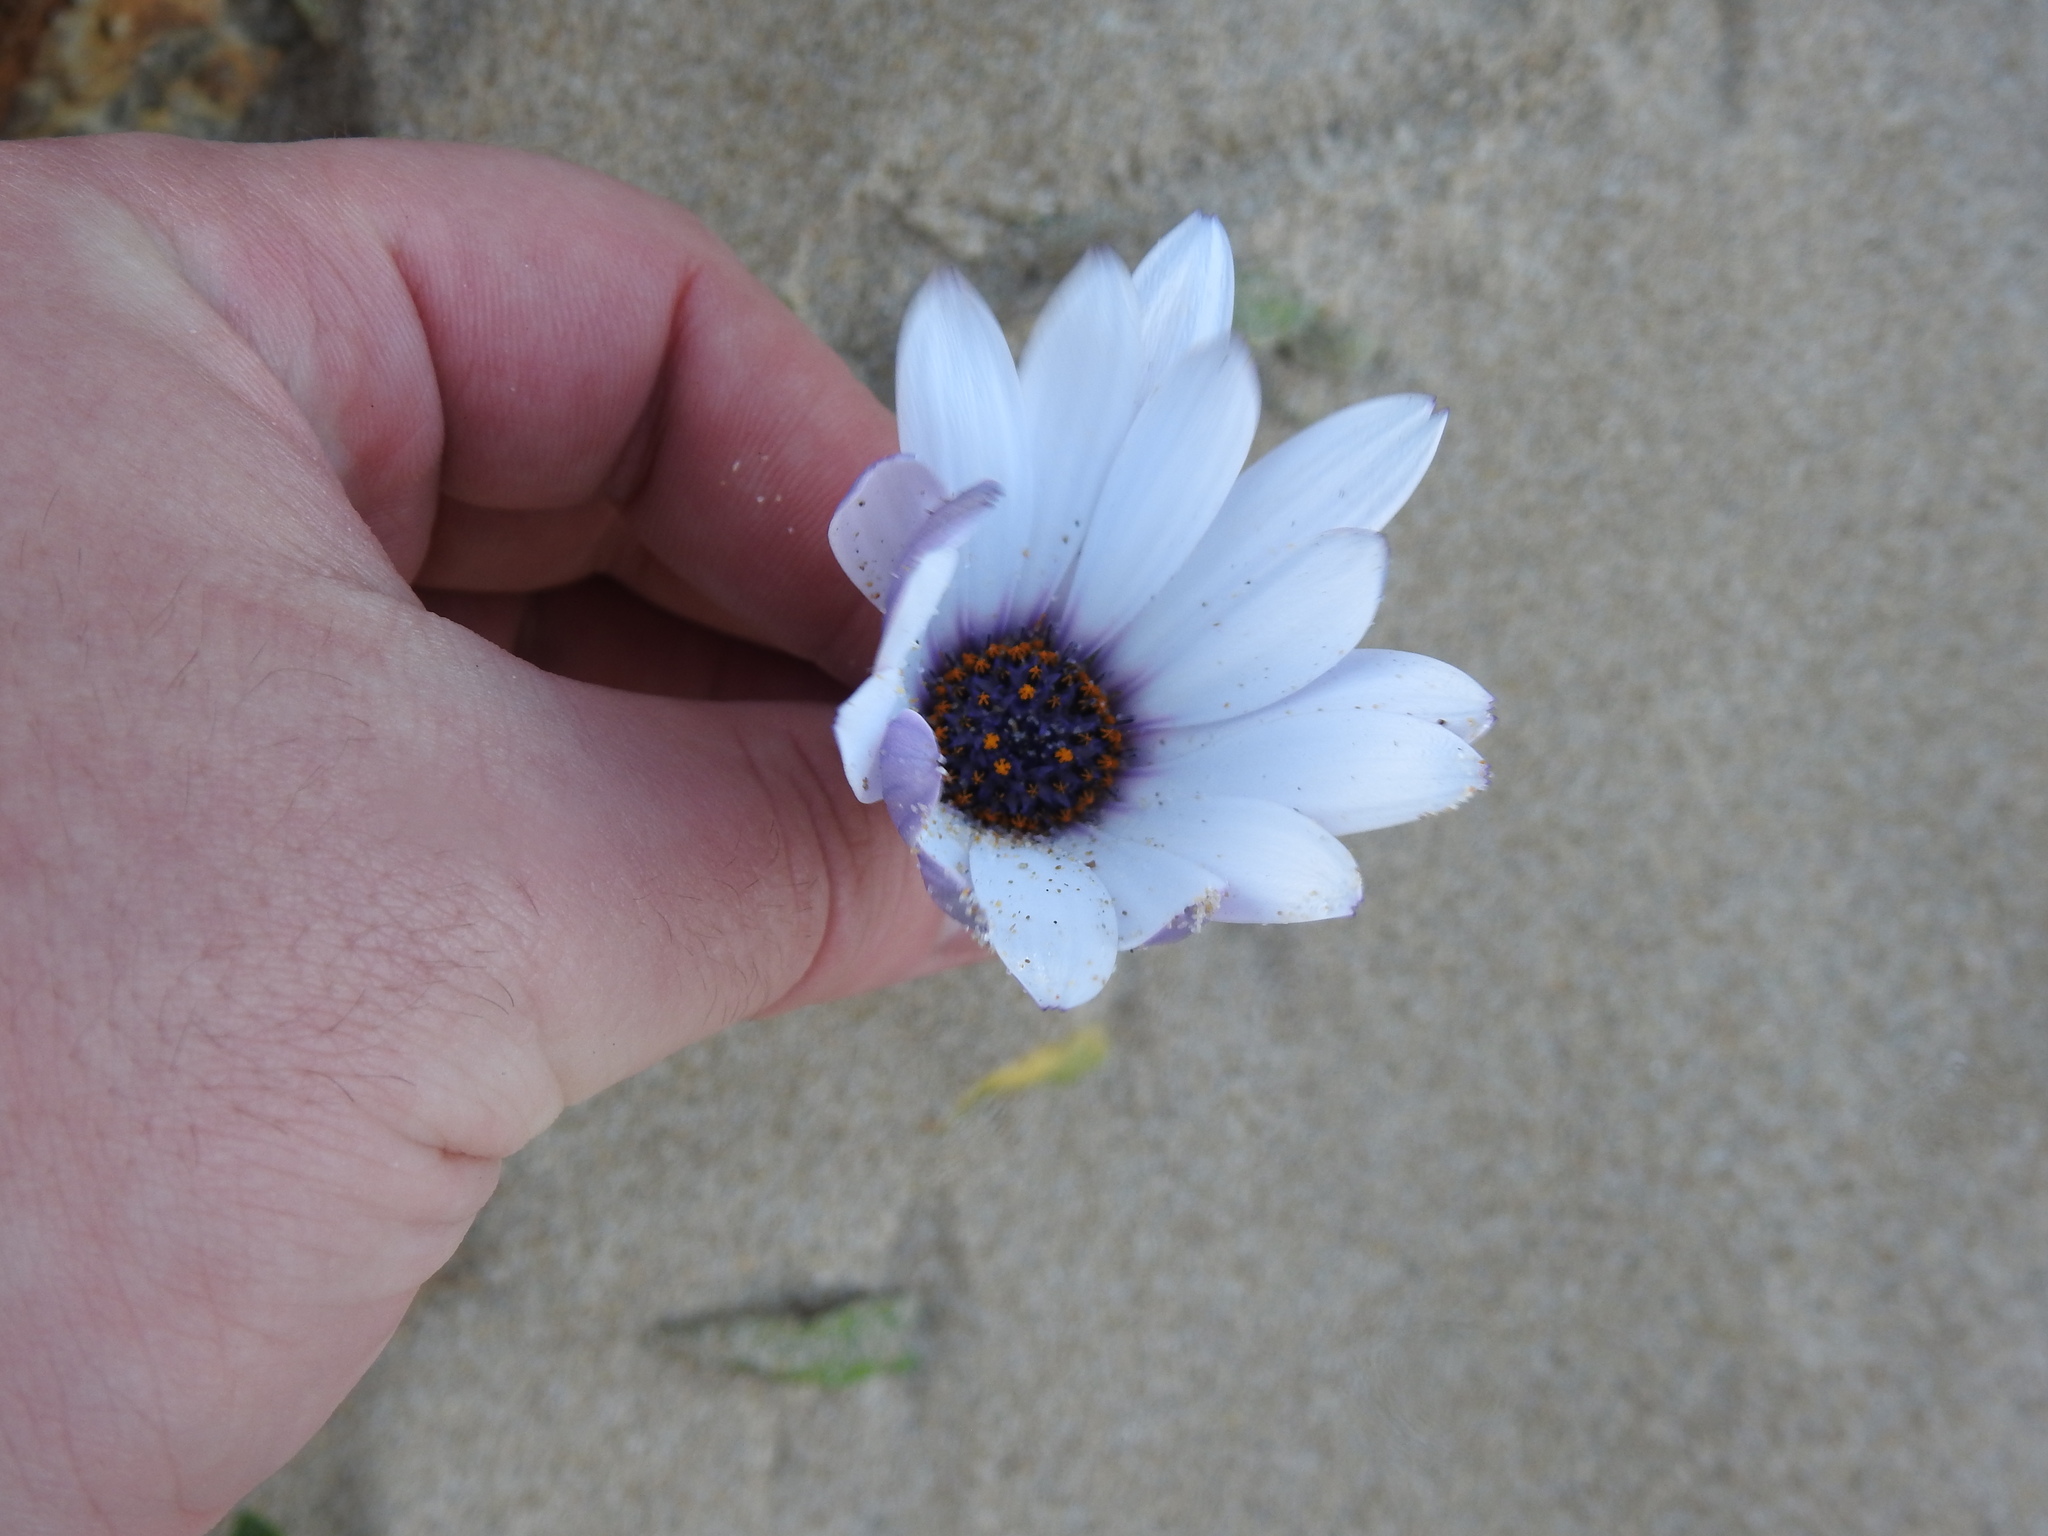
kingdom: Plantae
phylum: Tracheophyta
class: Magnoliopsida
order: Asterales
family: Asteraceae
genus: Dimorphotheca
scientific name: Dimorphotheca fruticosa
